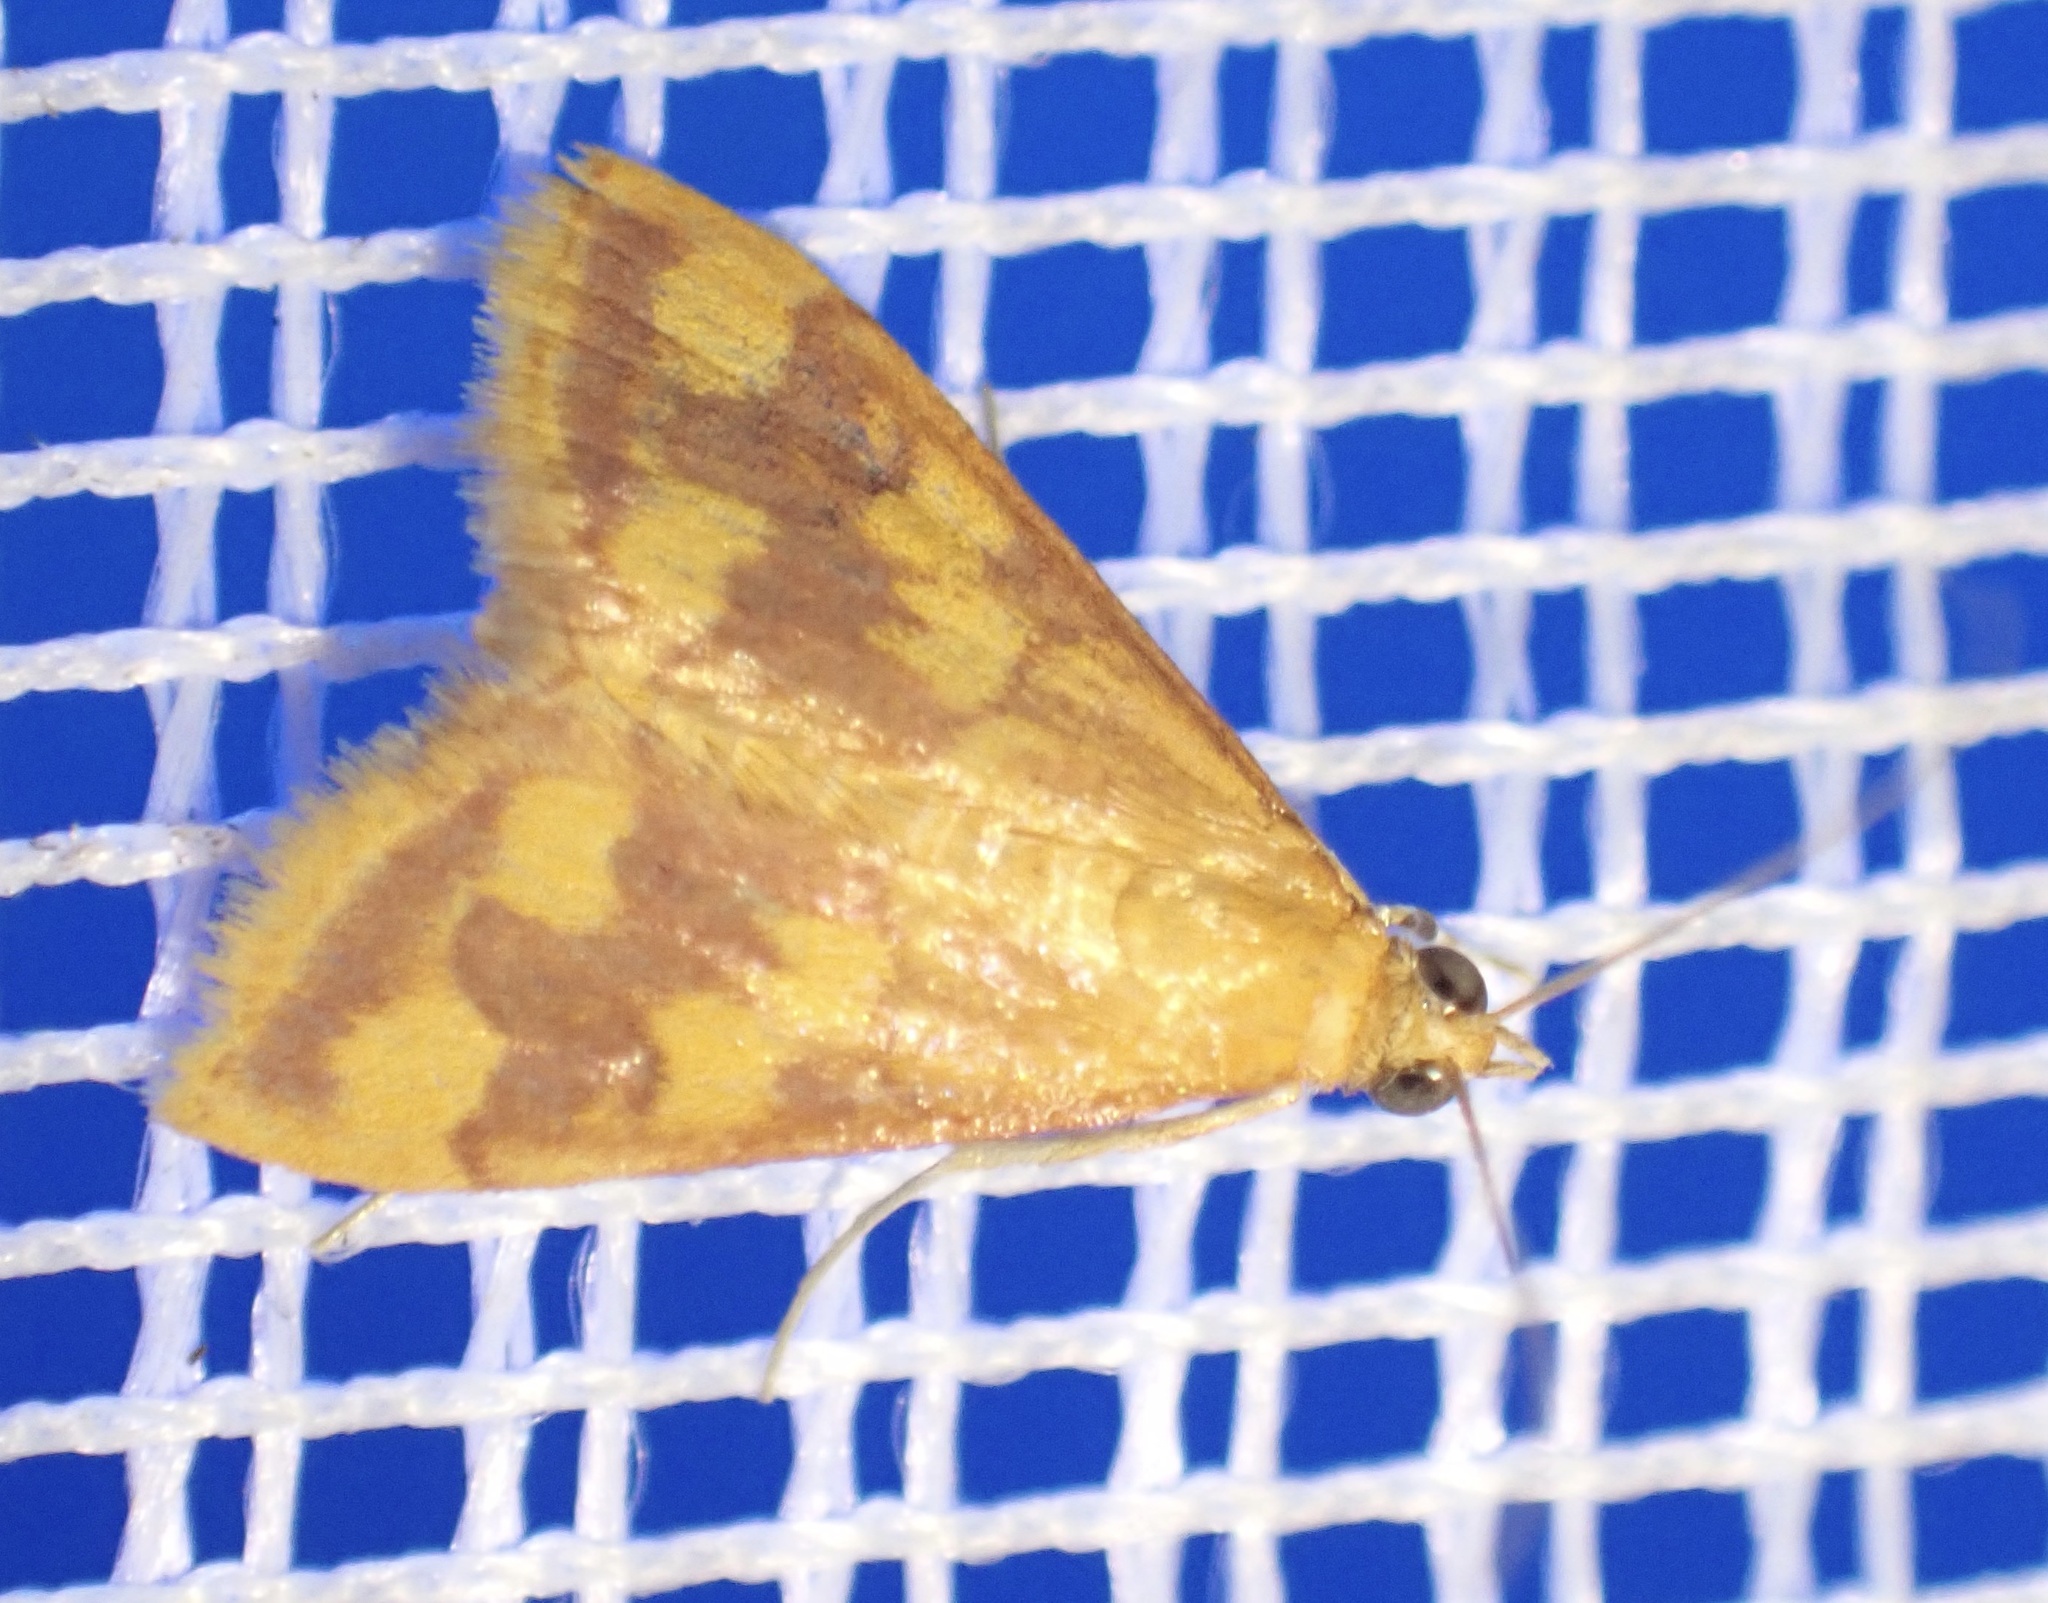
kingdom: Animalia
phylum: Arthropoda
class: Insecta
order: Lepidoptera
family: Crambidae
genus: Pyrausta
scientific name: Pyrausta phoenicealis
